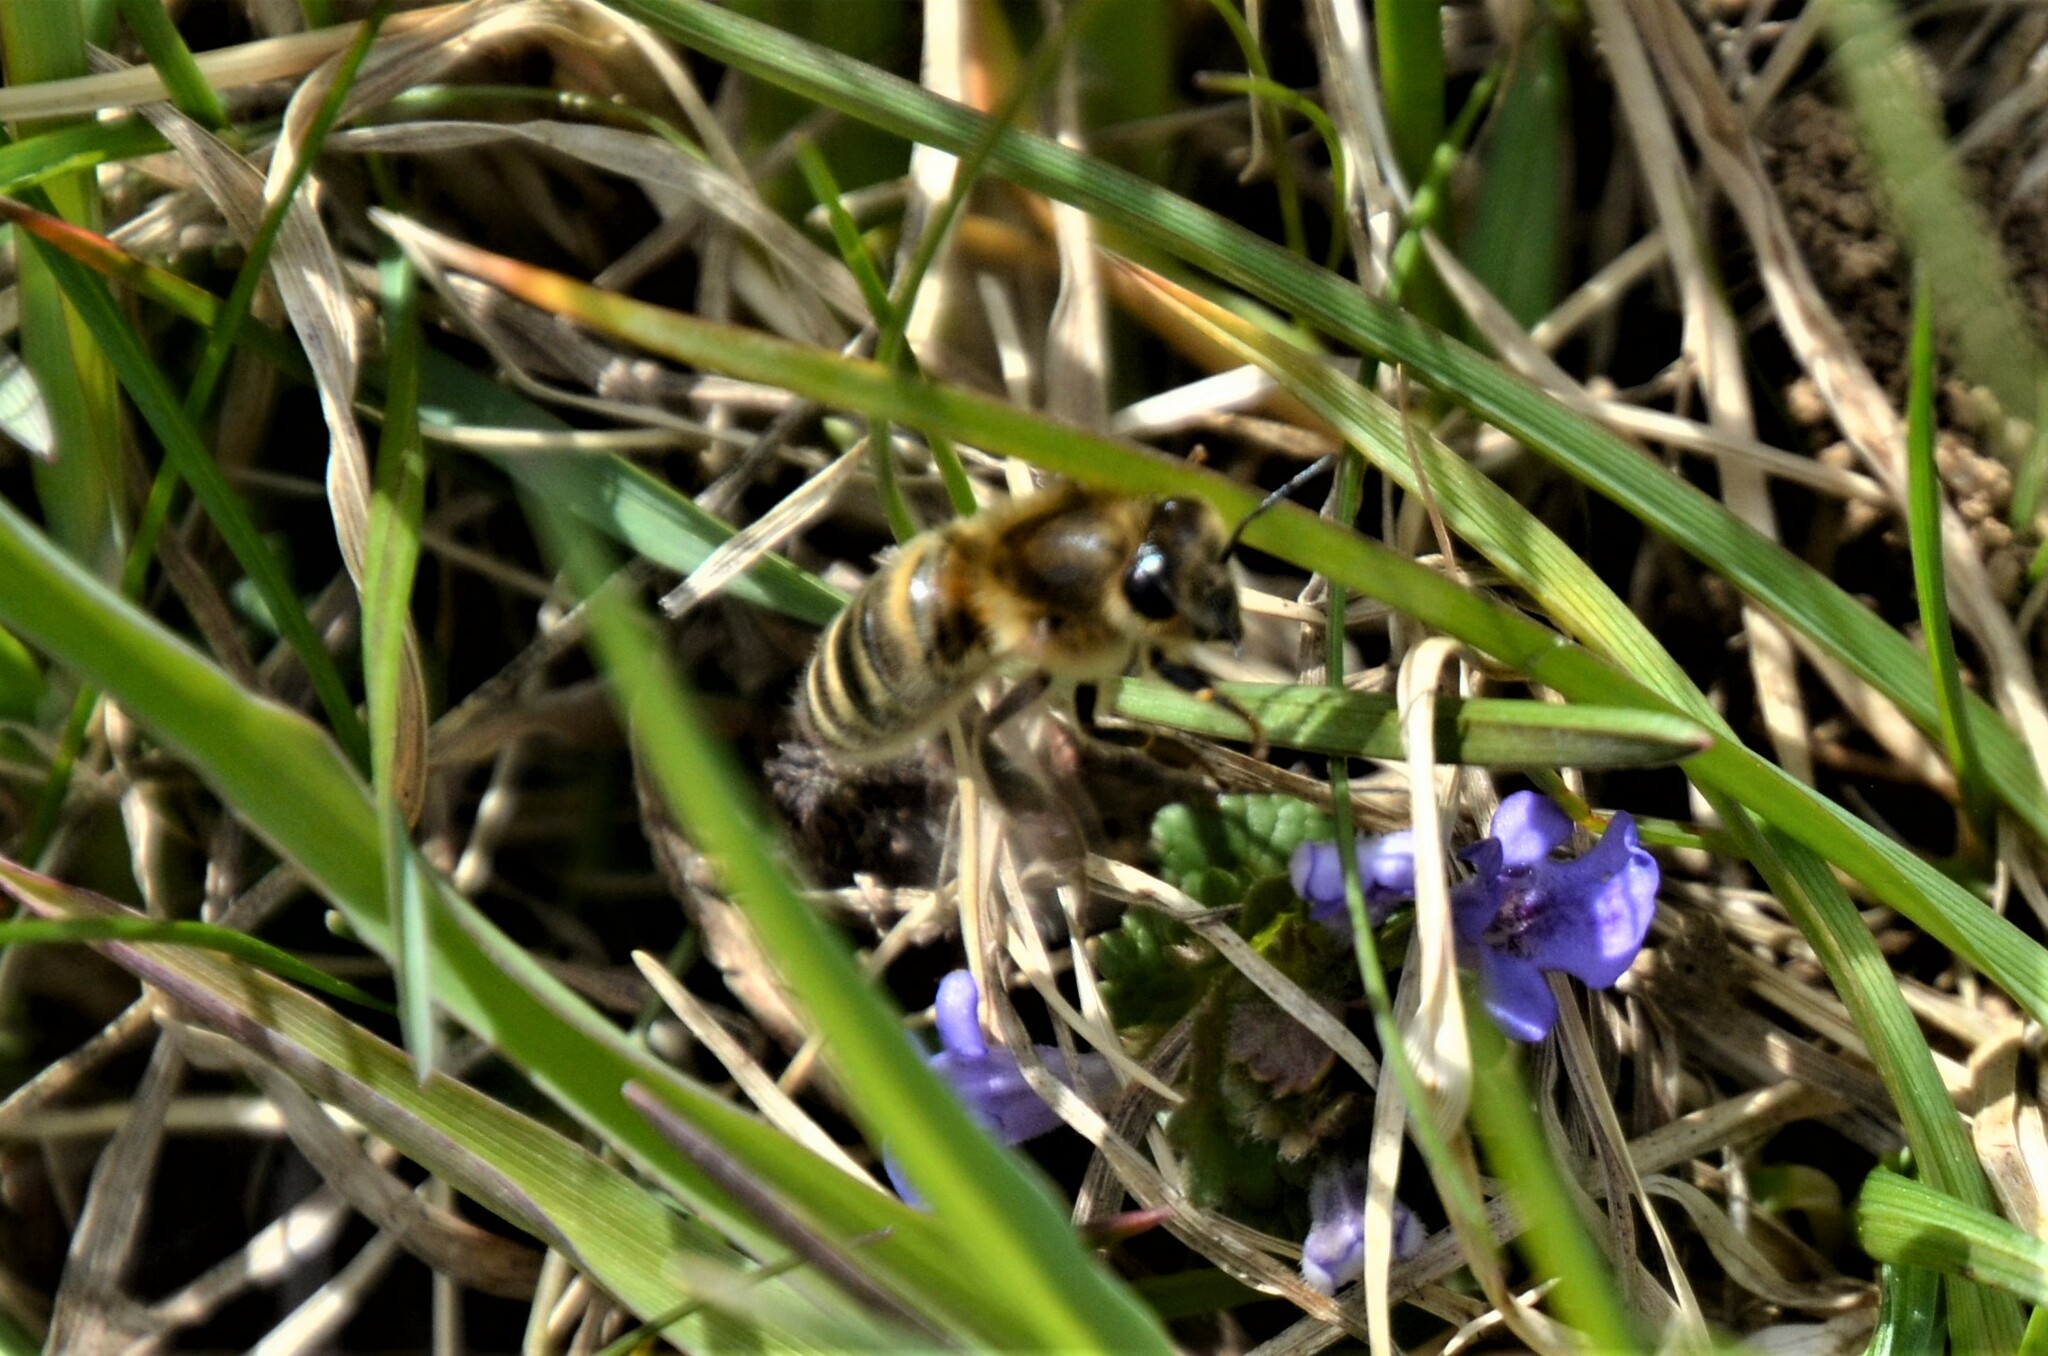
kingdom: Animalia
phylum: Arthropoda
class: Insecta
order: Hymenoptera
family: Apidae
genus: Apis
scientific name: Apis mellifera
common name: Honey bee
